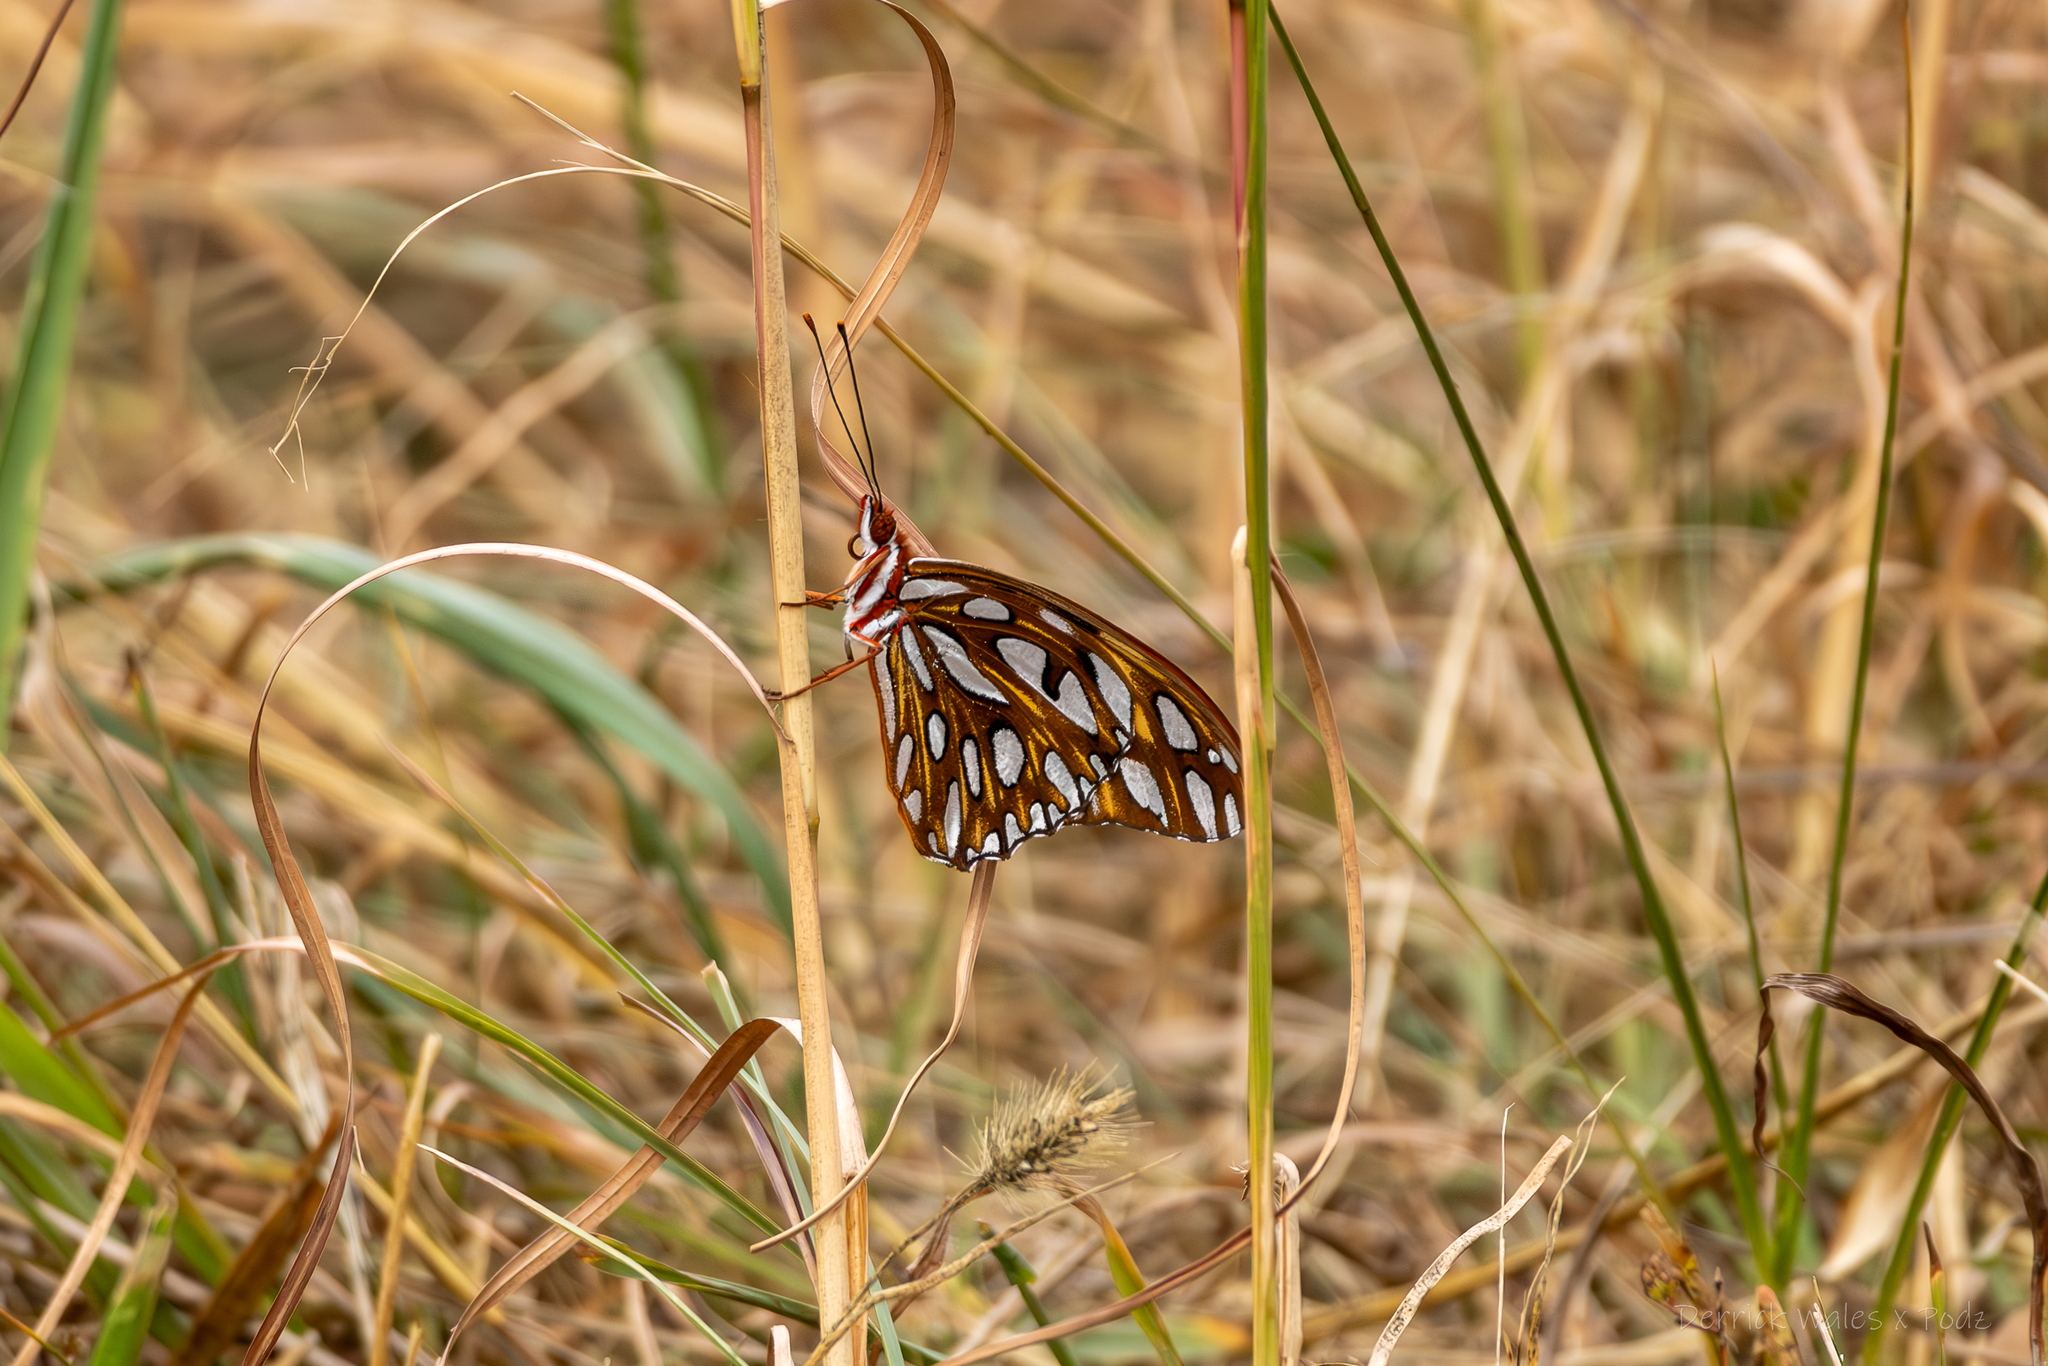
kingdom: Animalia
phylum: Arthropoda
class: Insecta
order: Lepidoptera
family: Nymphalidae
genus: Dione
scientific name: Dione vanillae
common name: Gulf fritillary
